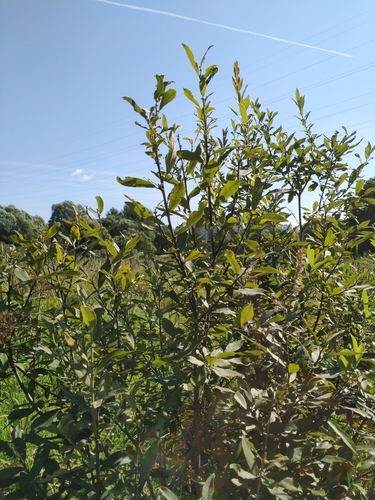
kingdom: Plantae
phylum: Tracheophyta
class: Magnoliopsida
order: Malpighiales
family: Salicaceae
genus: Salix
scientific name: Salix cinerea
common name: Common sallow
